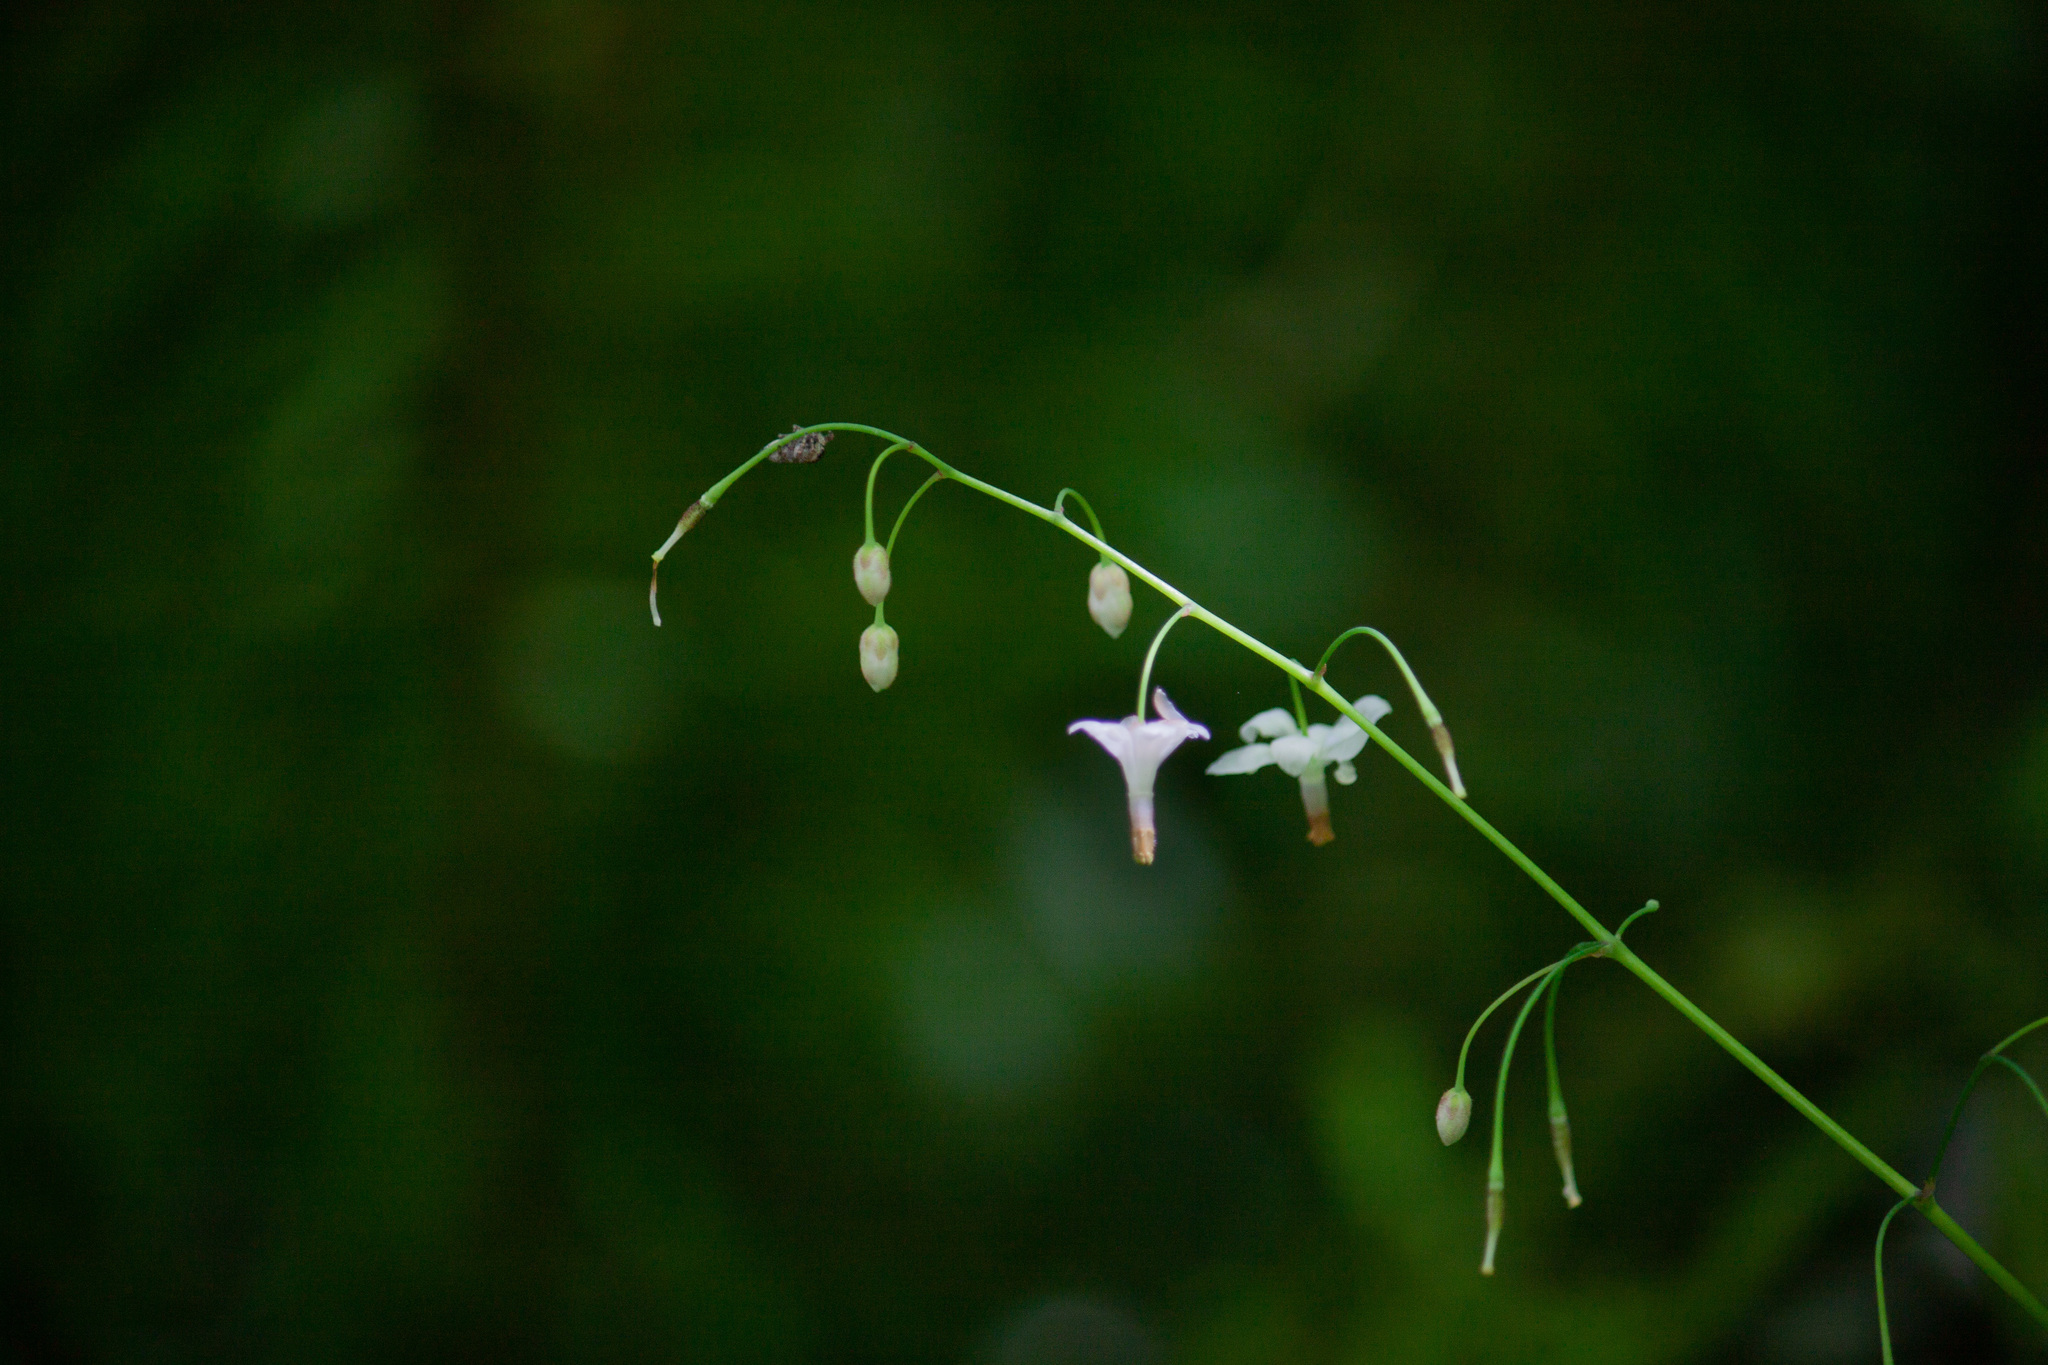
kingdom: Plantae
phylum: Tracheophyta
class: Magnoliopsida
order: Ranunculales
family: Berberidaceae
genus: Vancouveria
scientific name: Vancouveria hexandra
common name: Northern inside-out-flower
